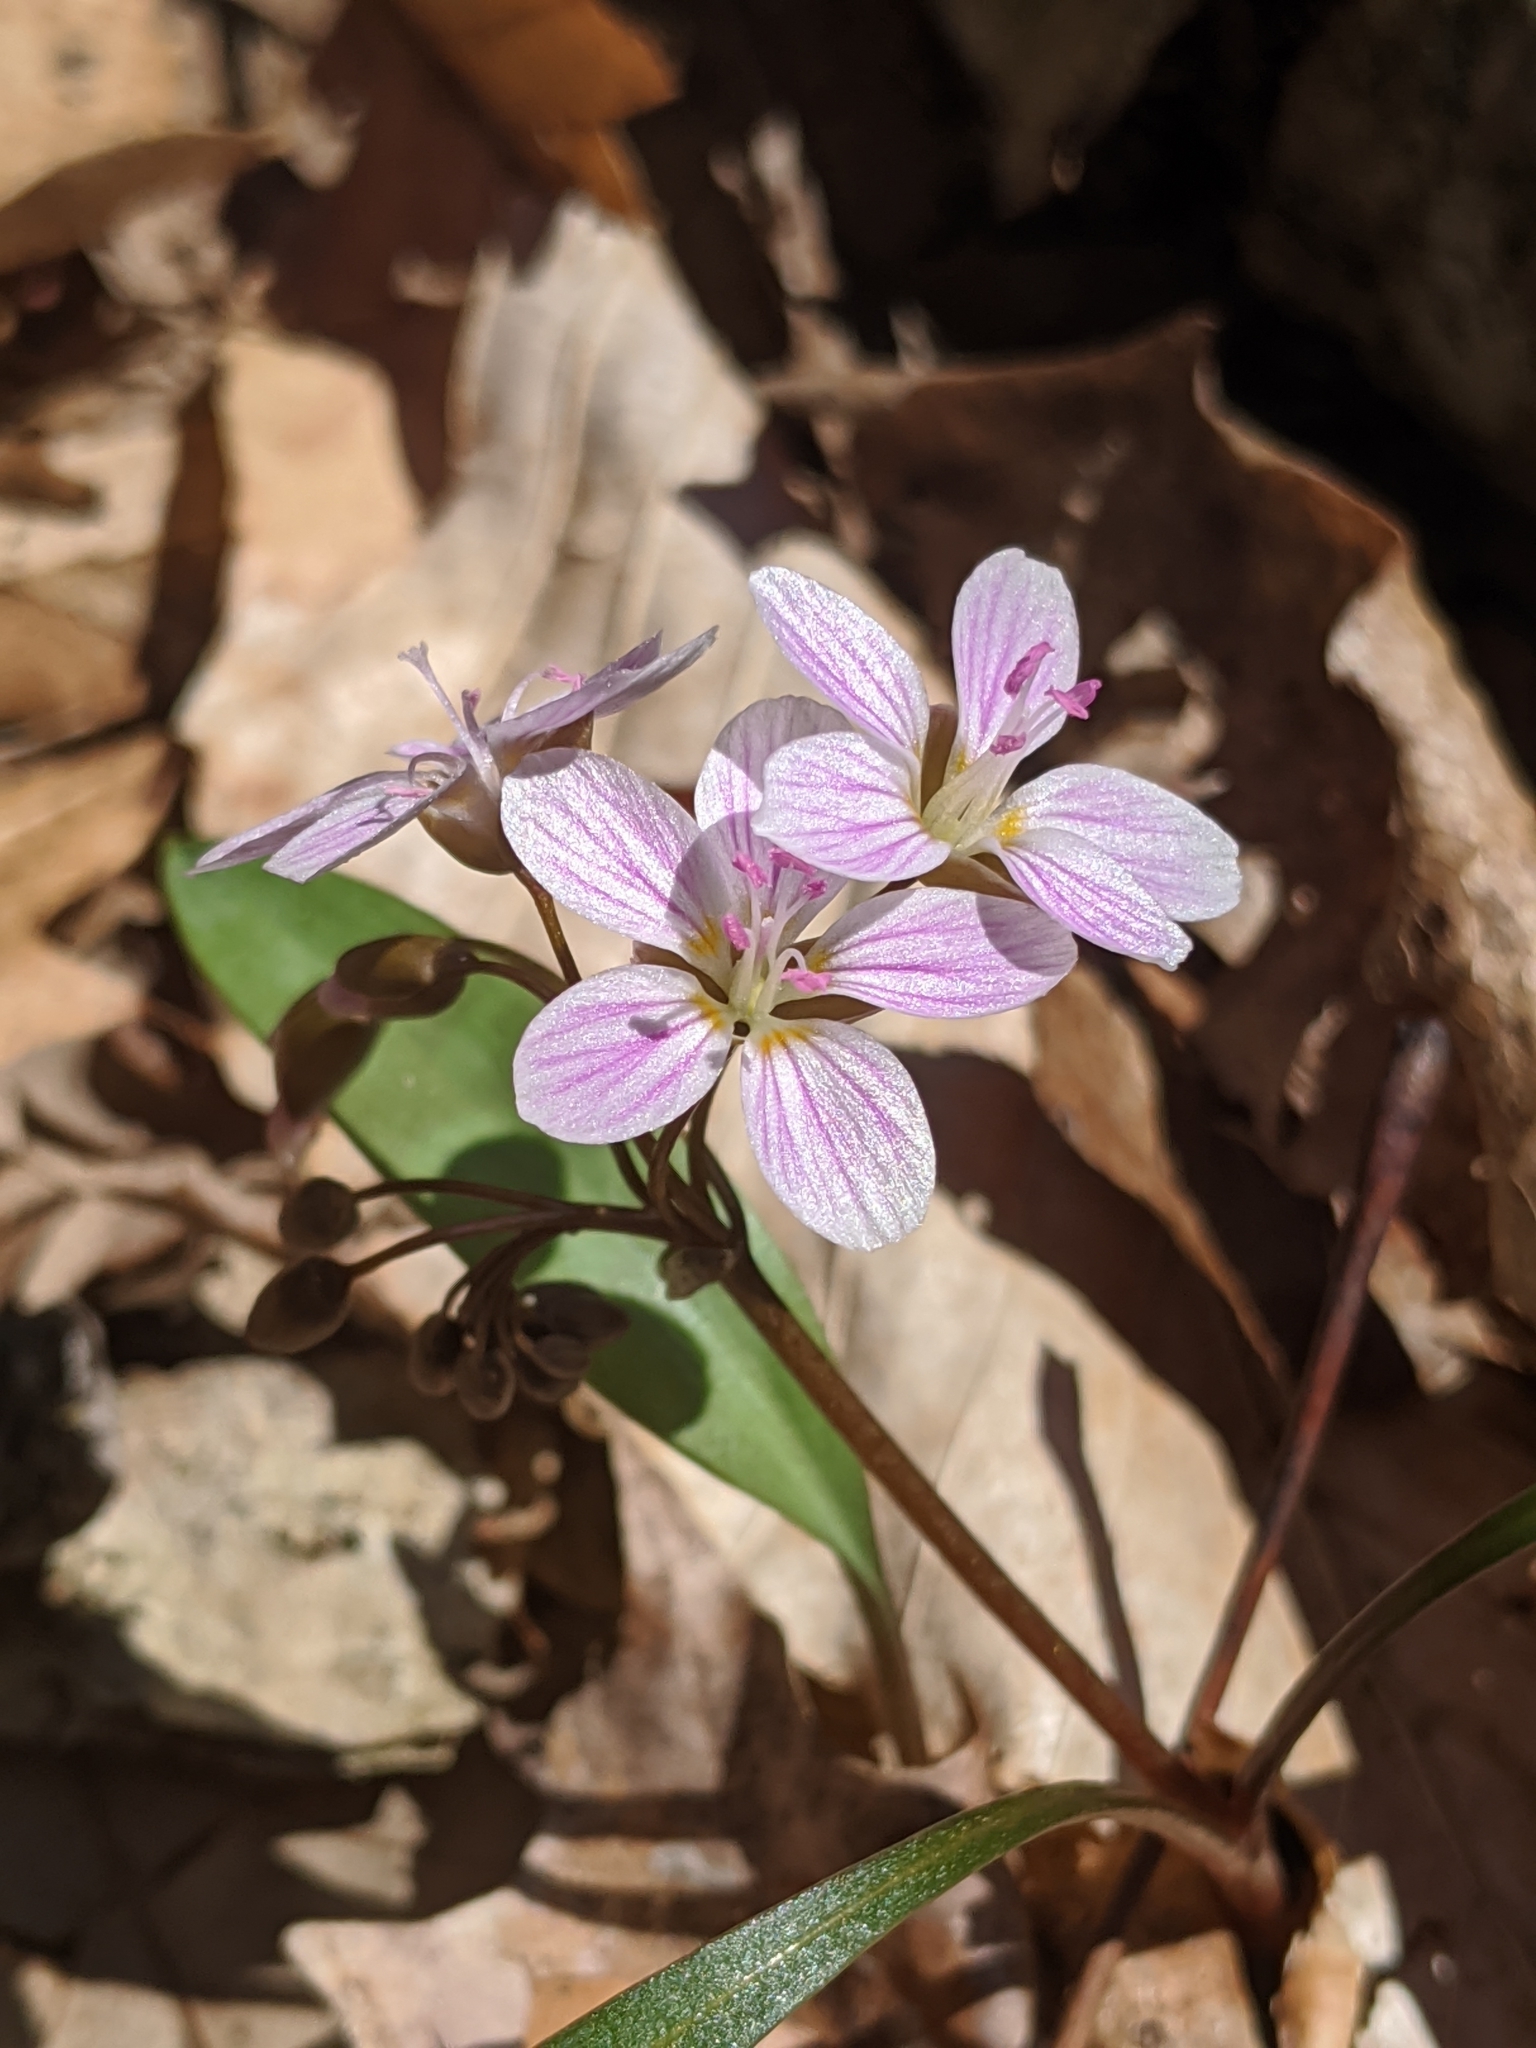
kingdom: Plantae
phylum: Tracheophyta
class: Magnoliopsida
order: Caryophyllales
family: Montiaceae
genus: Claytonia
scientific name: Claytonia virginica
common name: Virginia springbeauty
